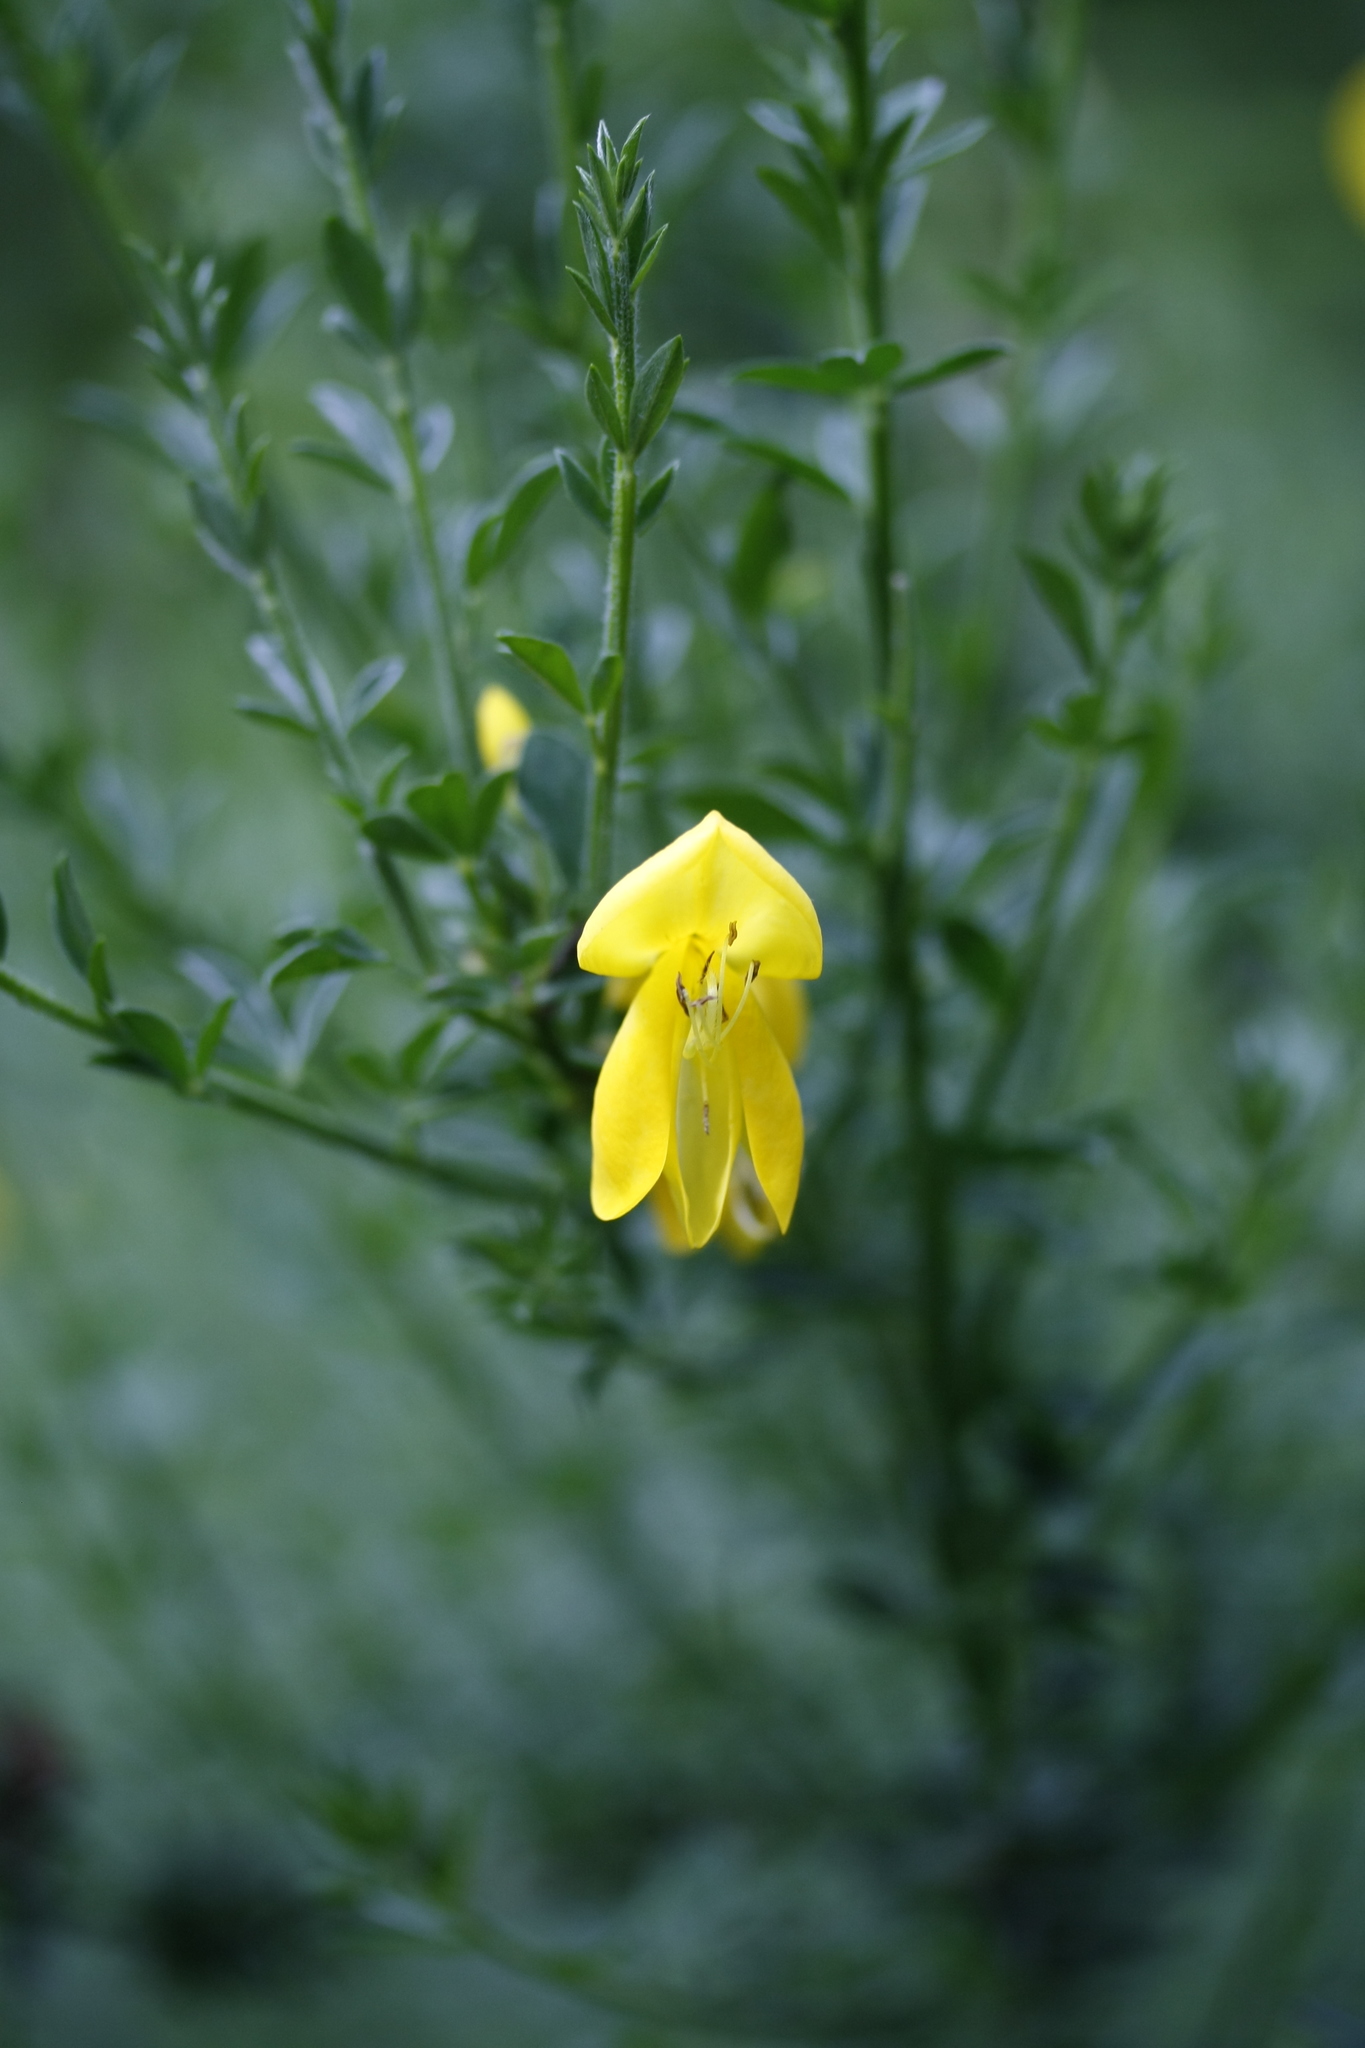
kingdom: Plantae
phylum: Tracheophyta
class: Magnoliopsida
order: Fabales
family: Fabaceae
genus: Cytisus
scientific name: Cytisus scoparius
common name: Scotch broom
